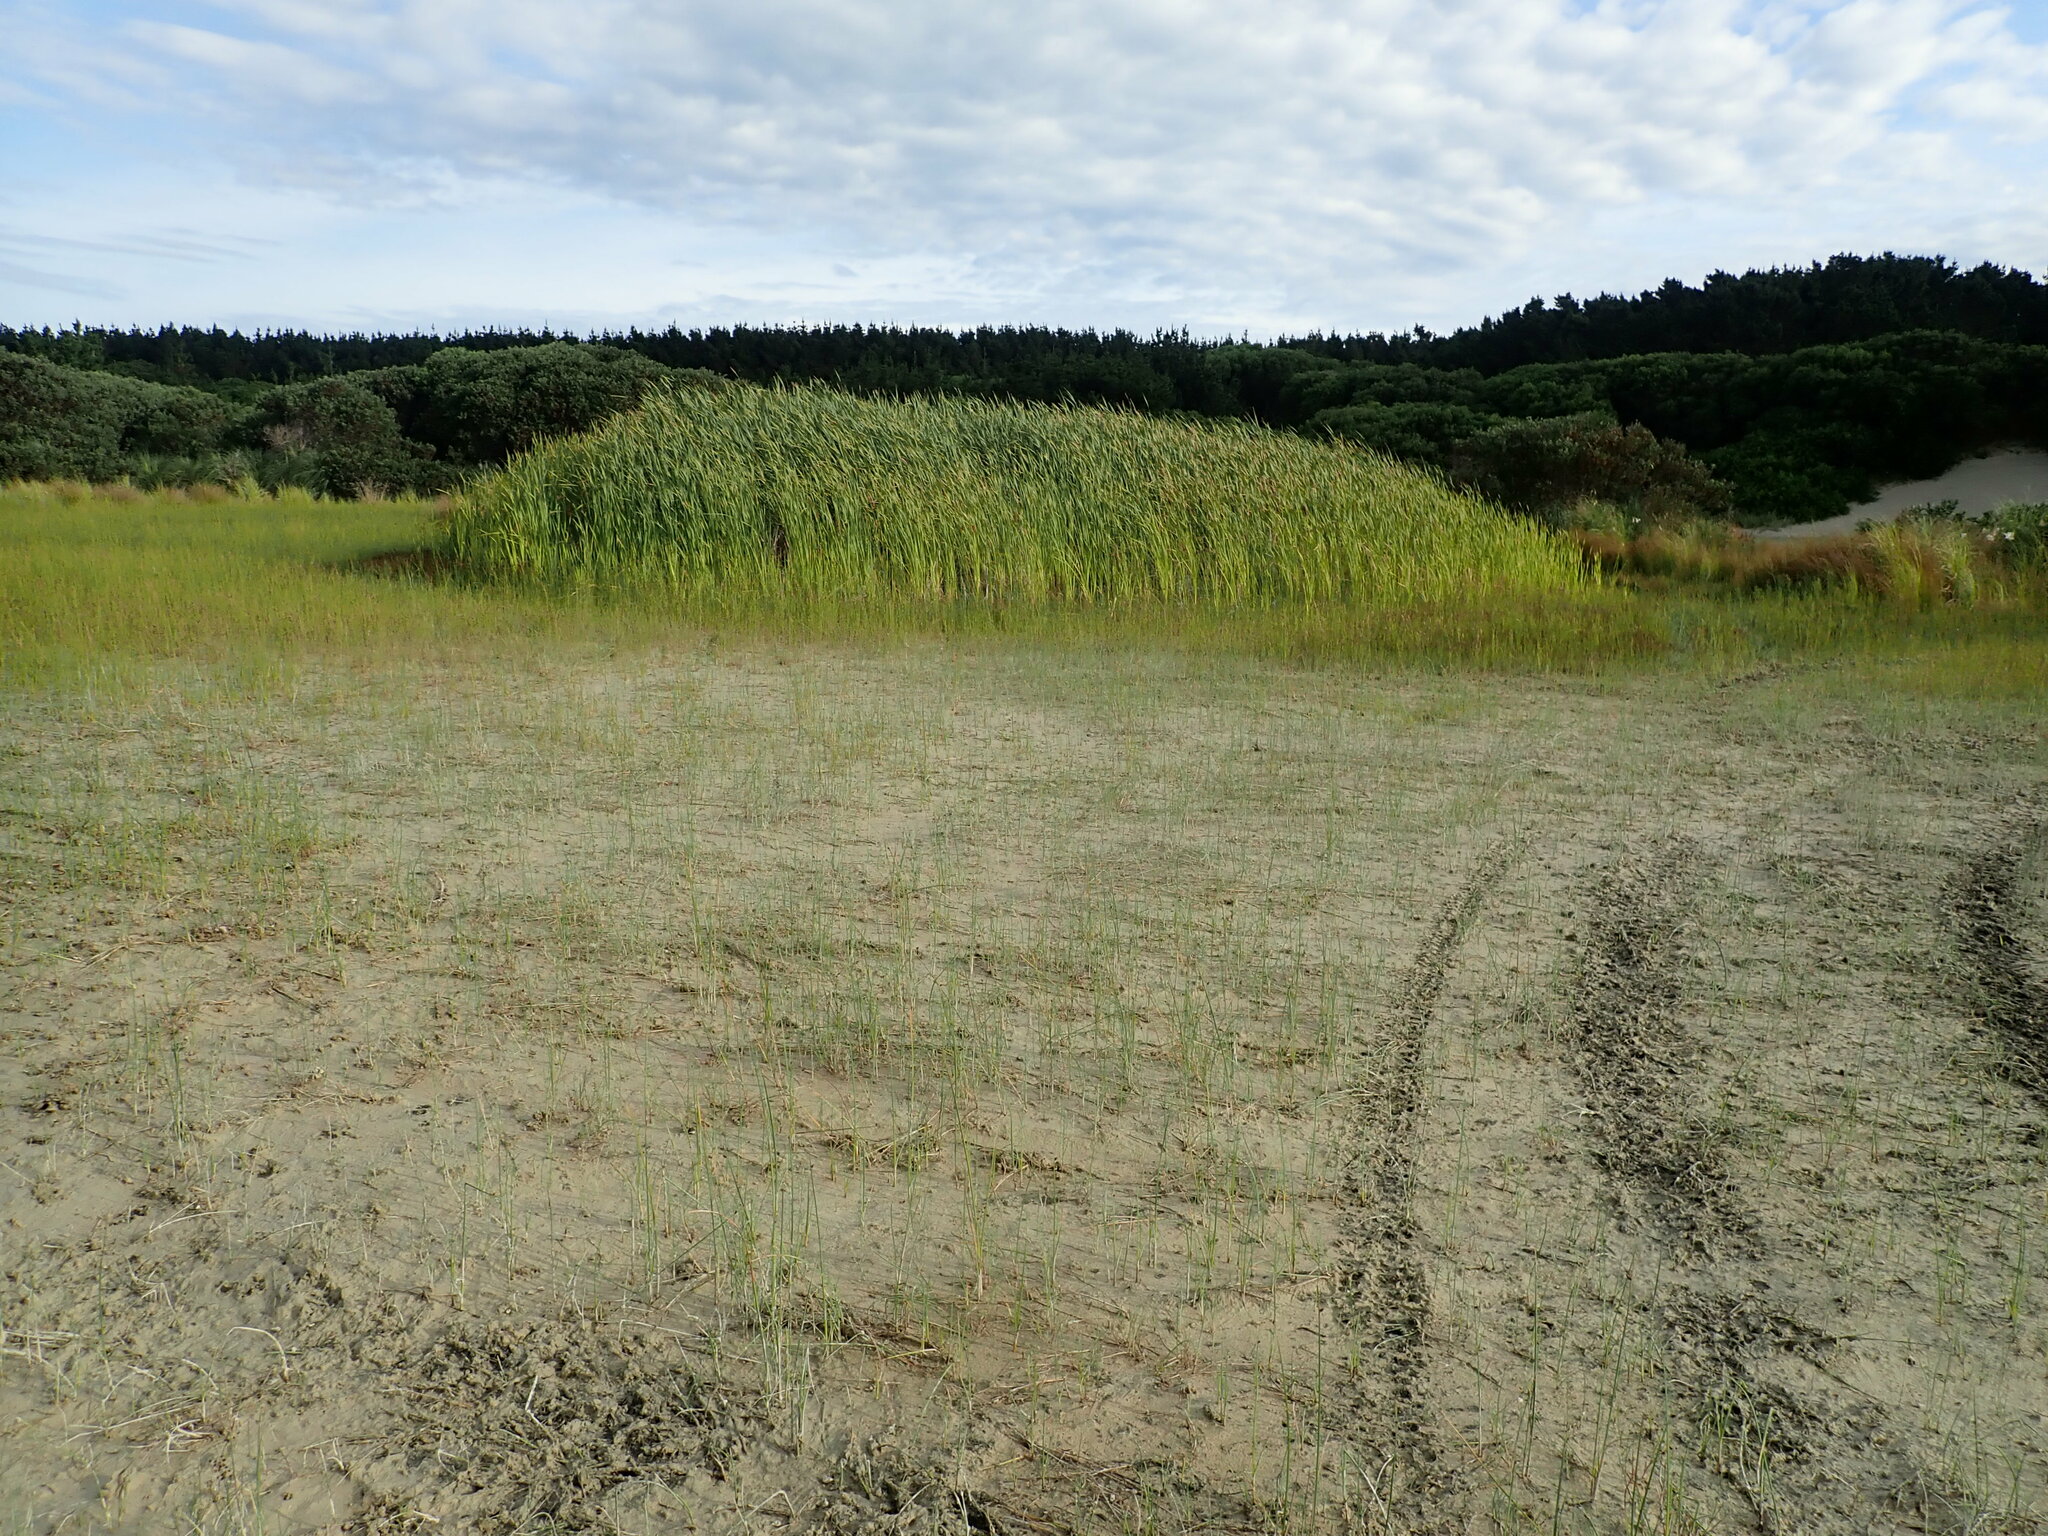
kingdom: Plantae
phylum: Tracheophyta
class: Liliopsida
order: Poales
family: Typhaceae
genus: Typha
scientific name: Typha orientalis
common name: Bullrush
